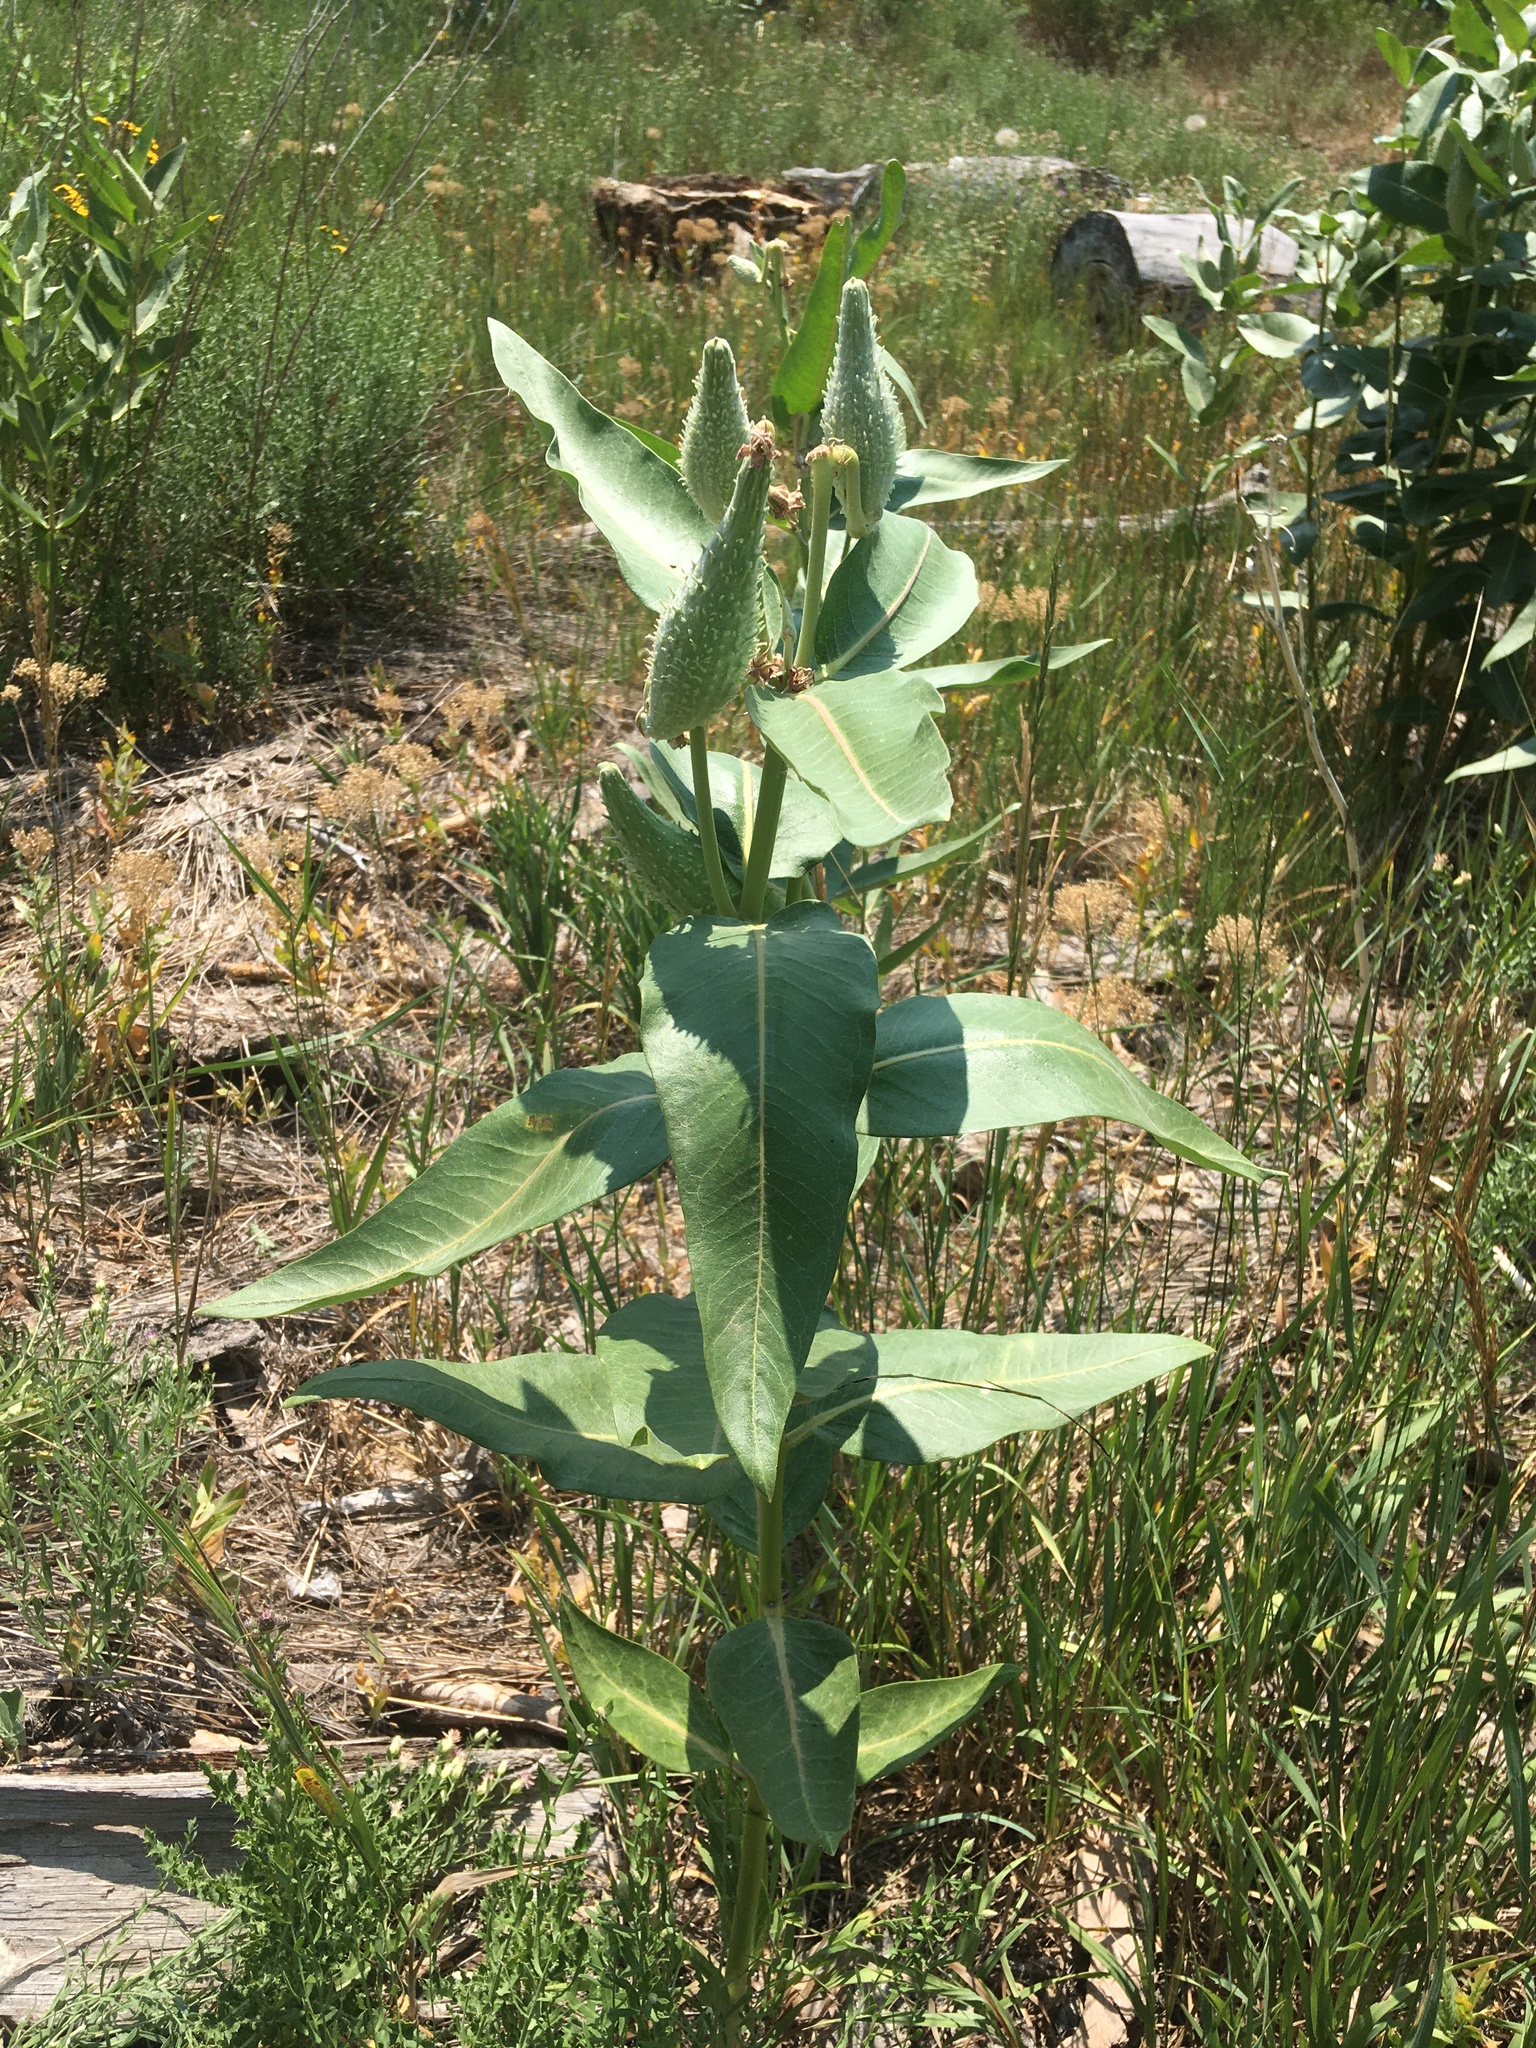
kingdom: Plantae
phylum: Tracheophyta
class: Magnoliopsida
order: Gentianales
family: Apocynaceae
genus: Asclepias
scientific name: Asclepias speciosa
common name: Showy milkweed
